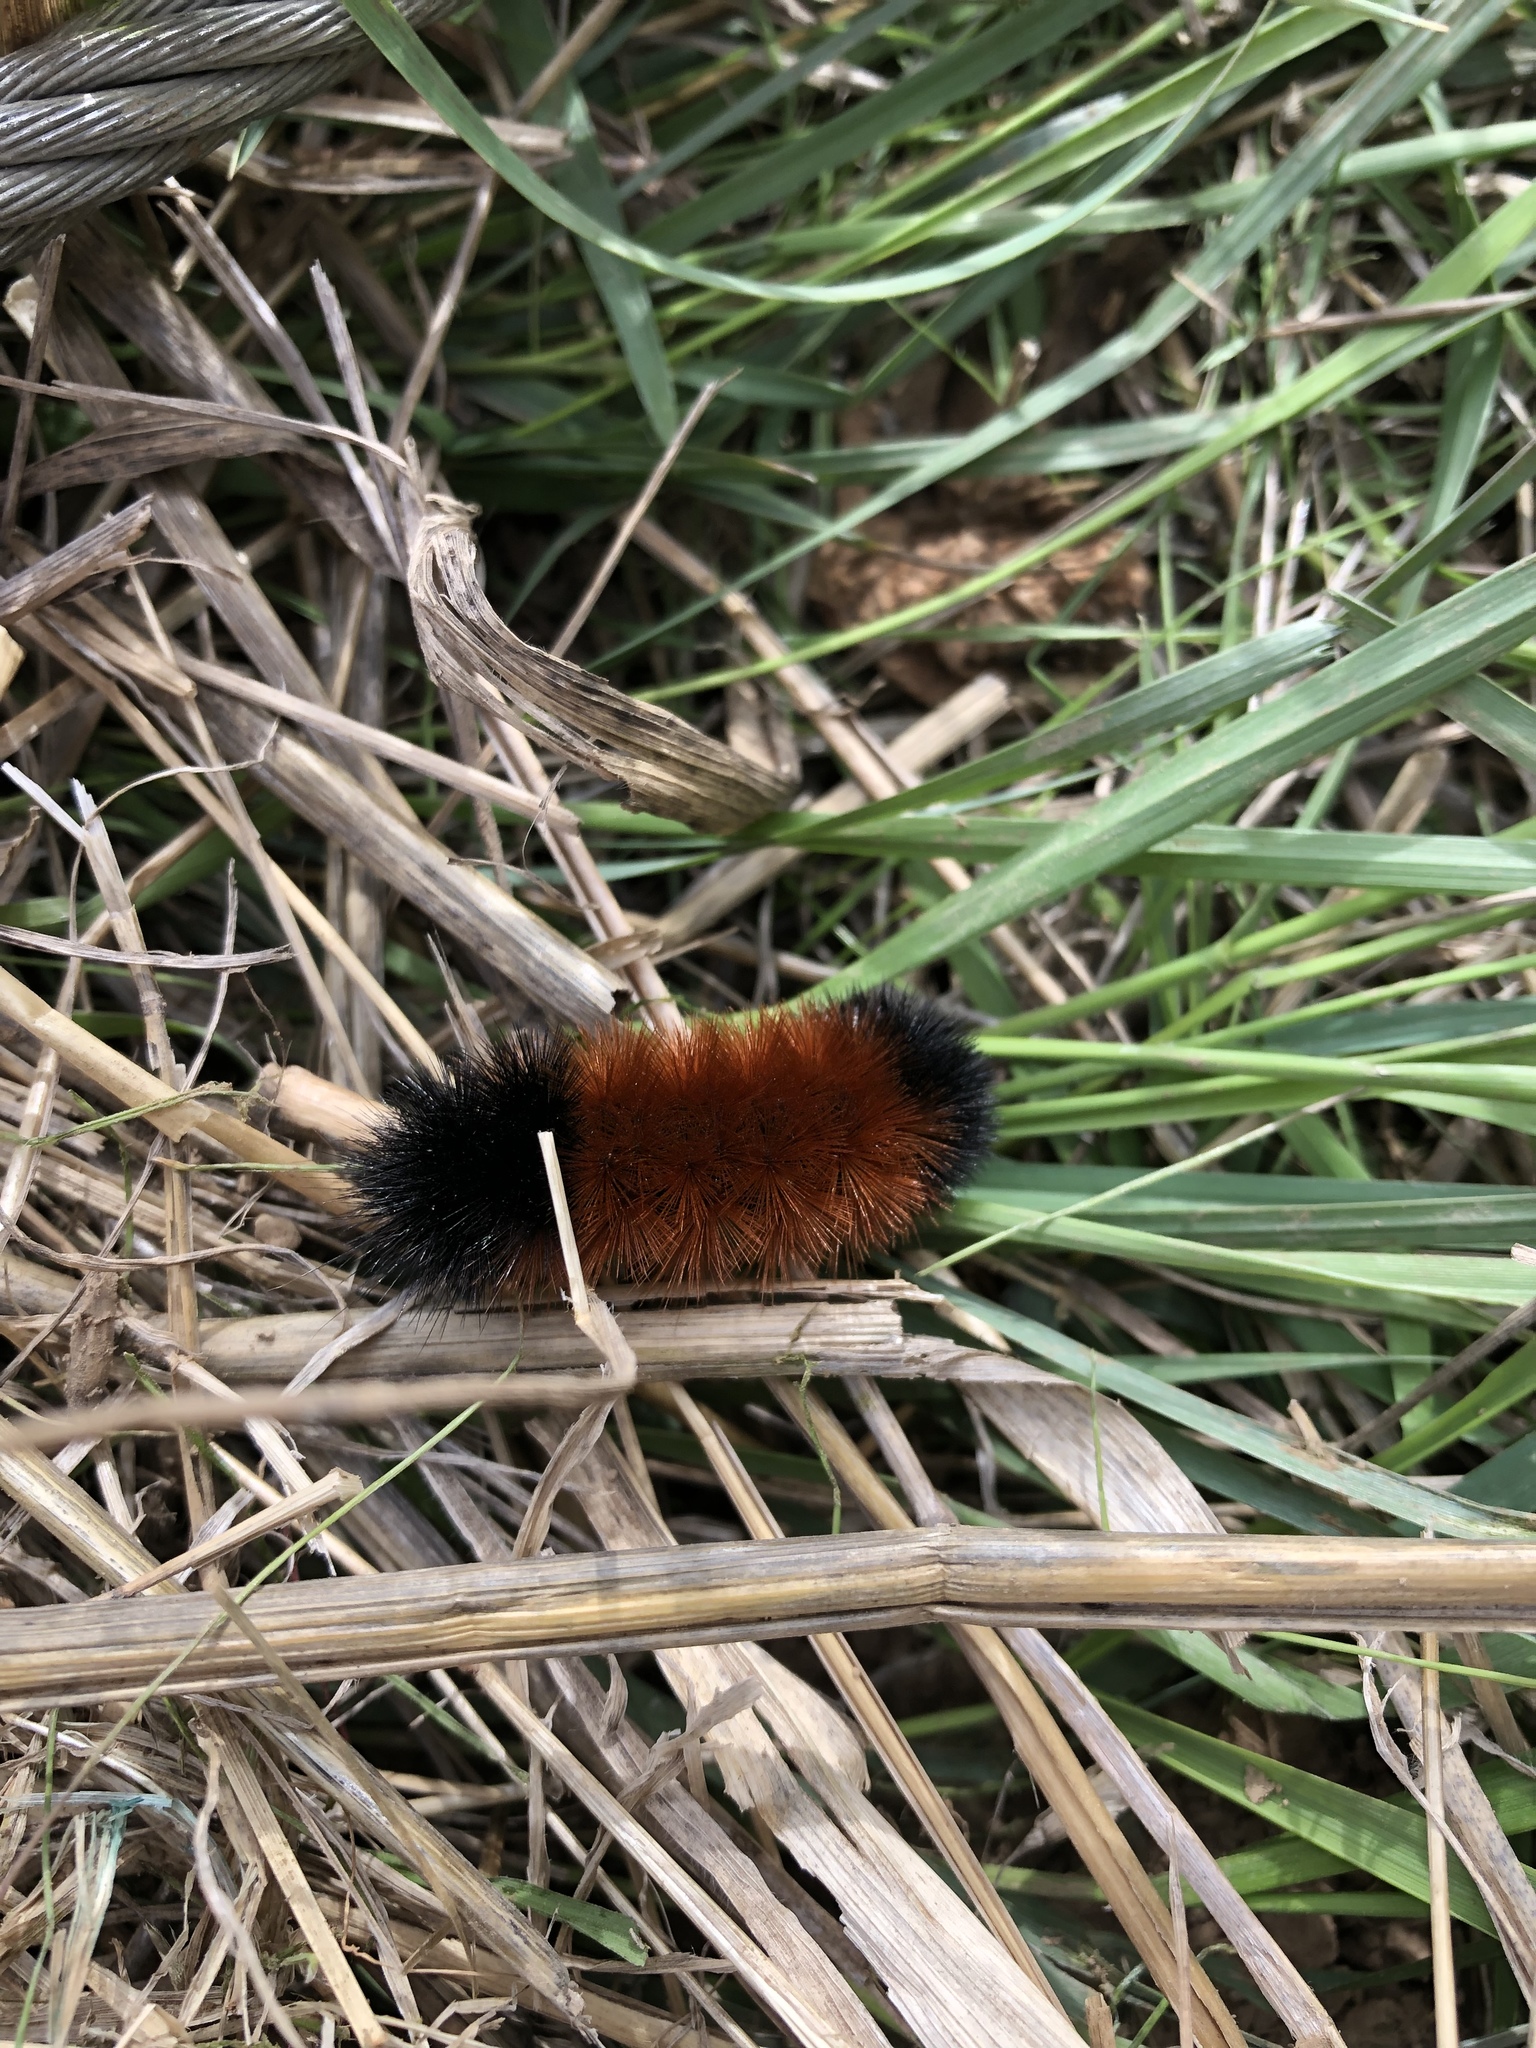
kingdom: Animalia
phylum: Arthropoda
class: Insecta
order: Lepidoptera
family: Erebidae
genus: Pyrrharctia
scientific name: Pyrrharctia isabella
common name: Isabella tiger moth
